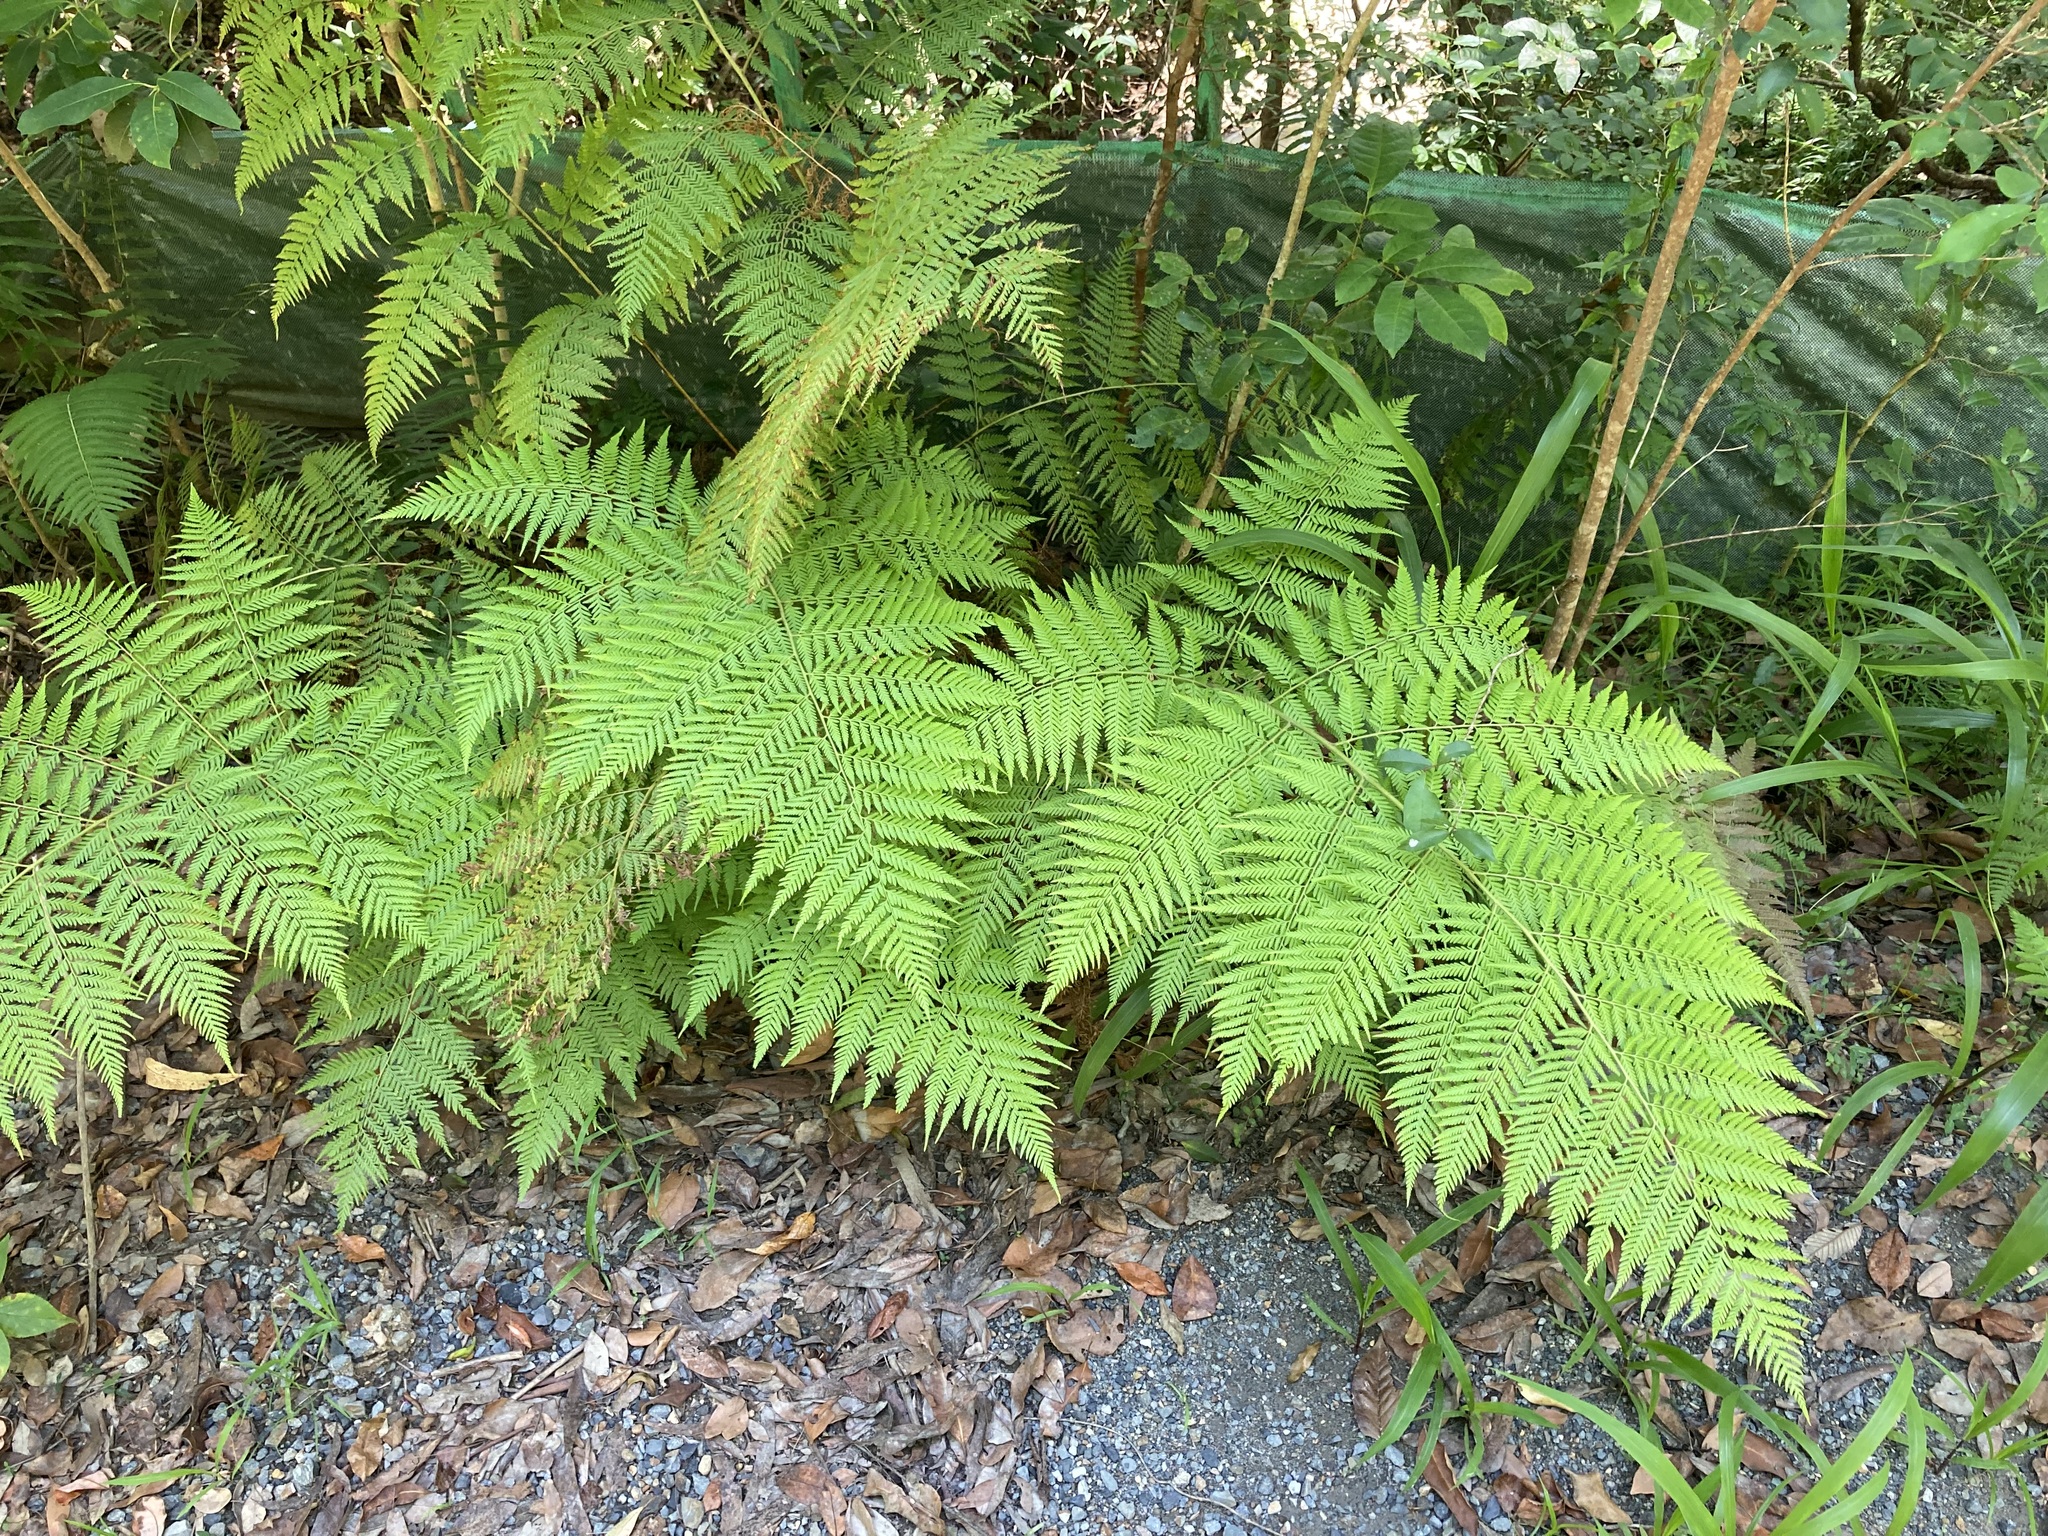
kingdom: Plantae
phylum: Tracheophyta
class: Polypodiopsida
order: Cyatheales
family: Dicksoniaceae
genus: Calochlaena
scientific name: Calochlaena dubia
